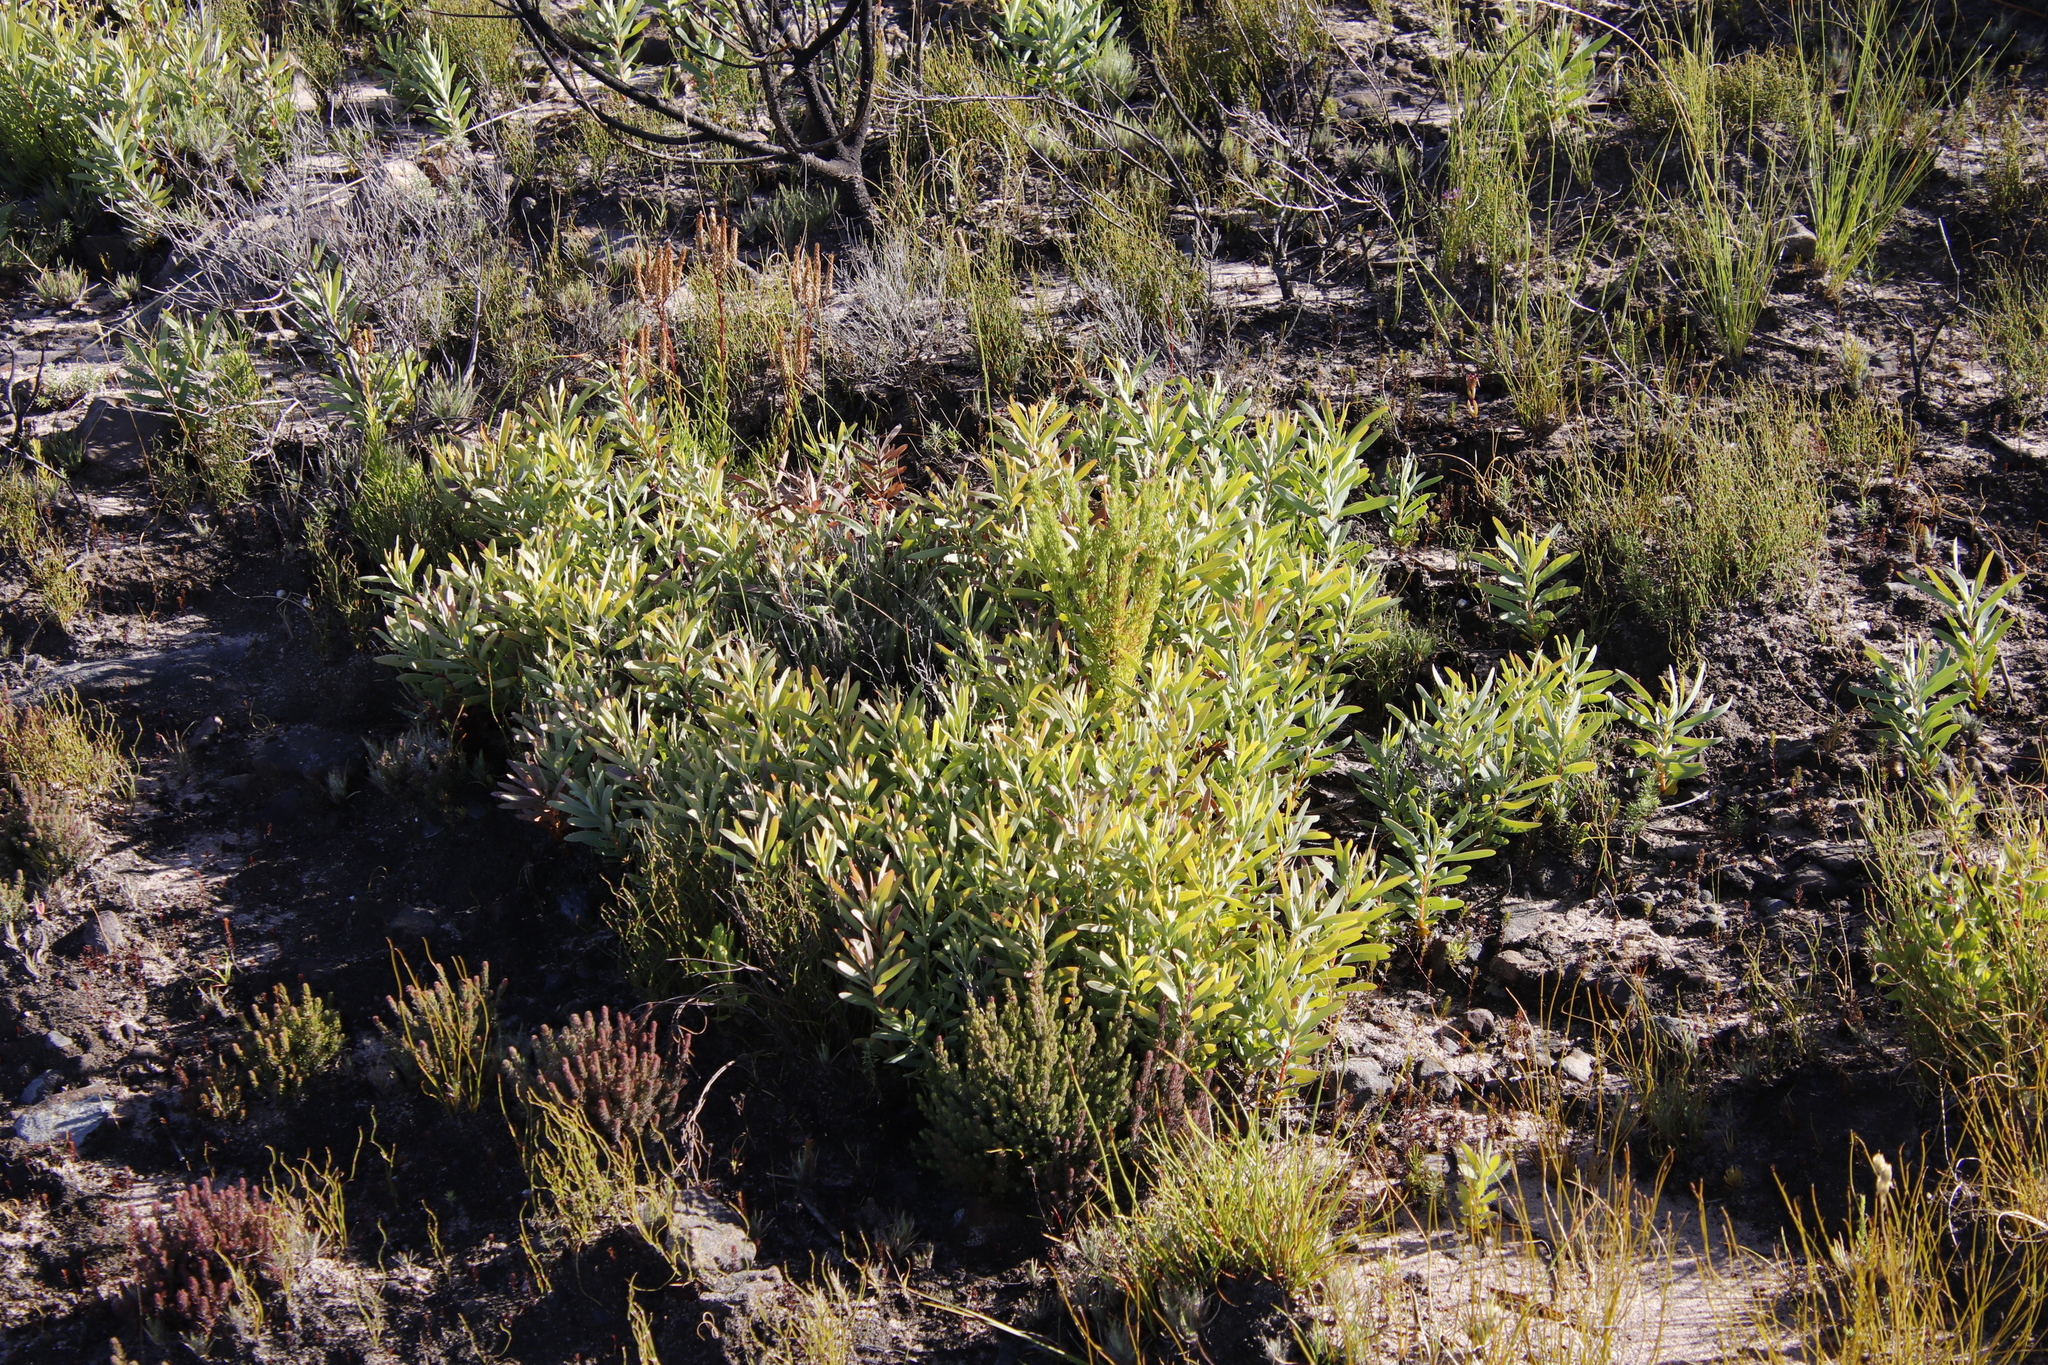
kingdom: Plantae
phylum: Tracheophyta
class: Magnoliopsida
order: Proteales
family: Proteaceae
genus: Protea
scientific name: Protea repens
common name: Sugarbush
